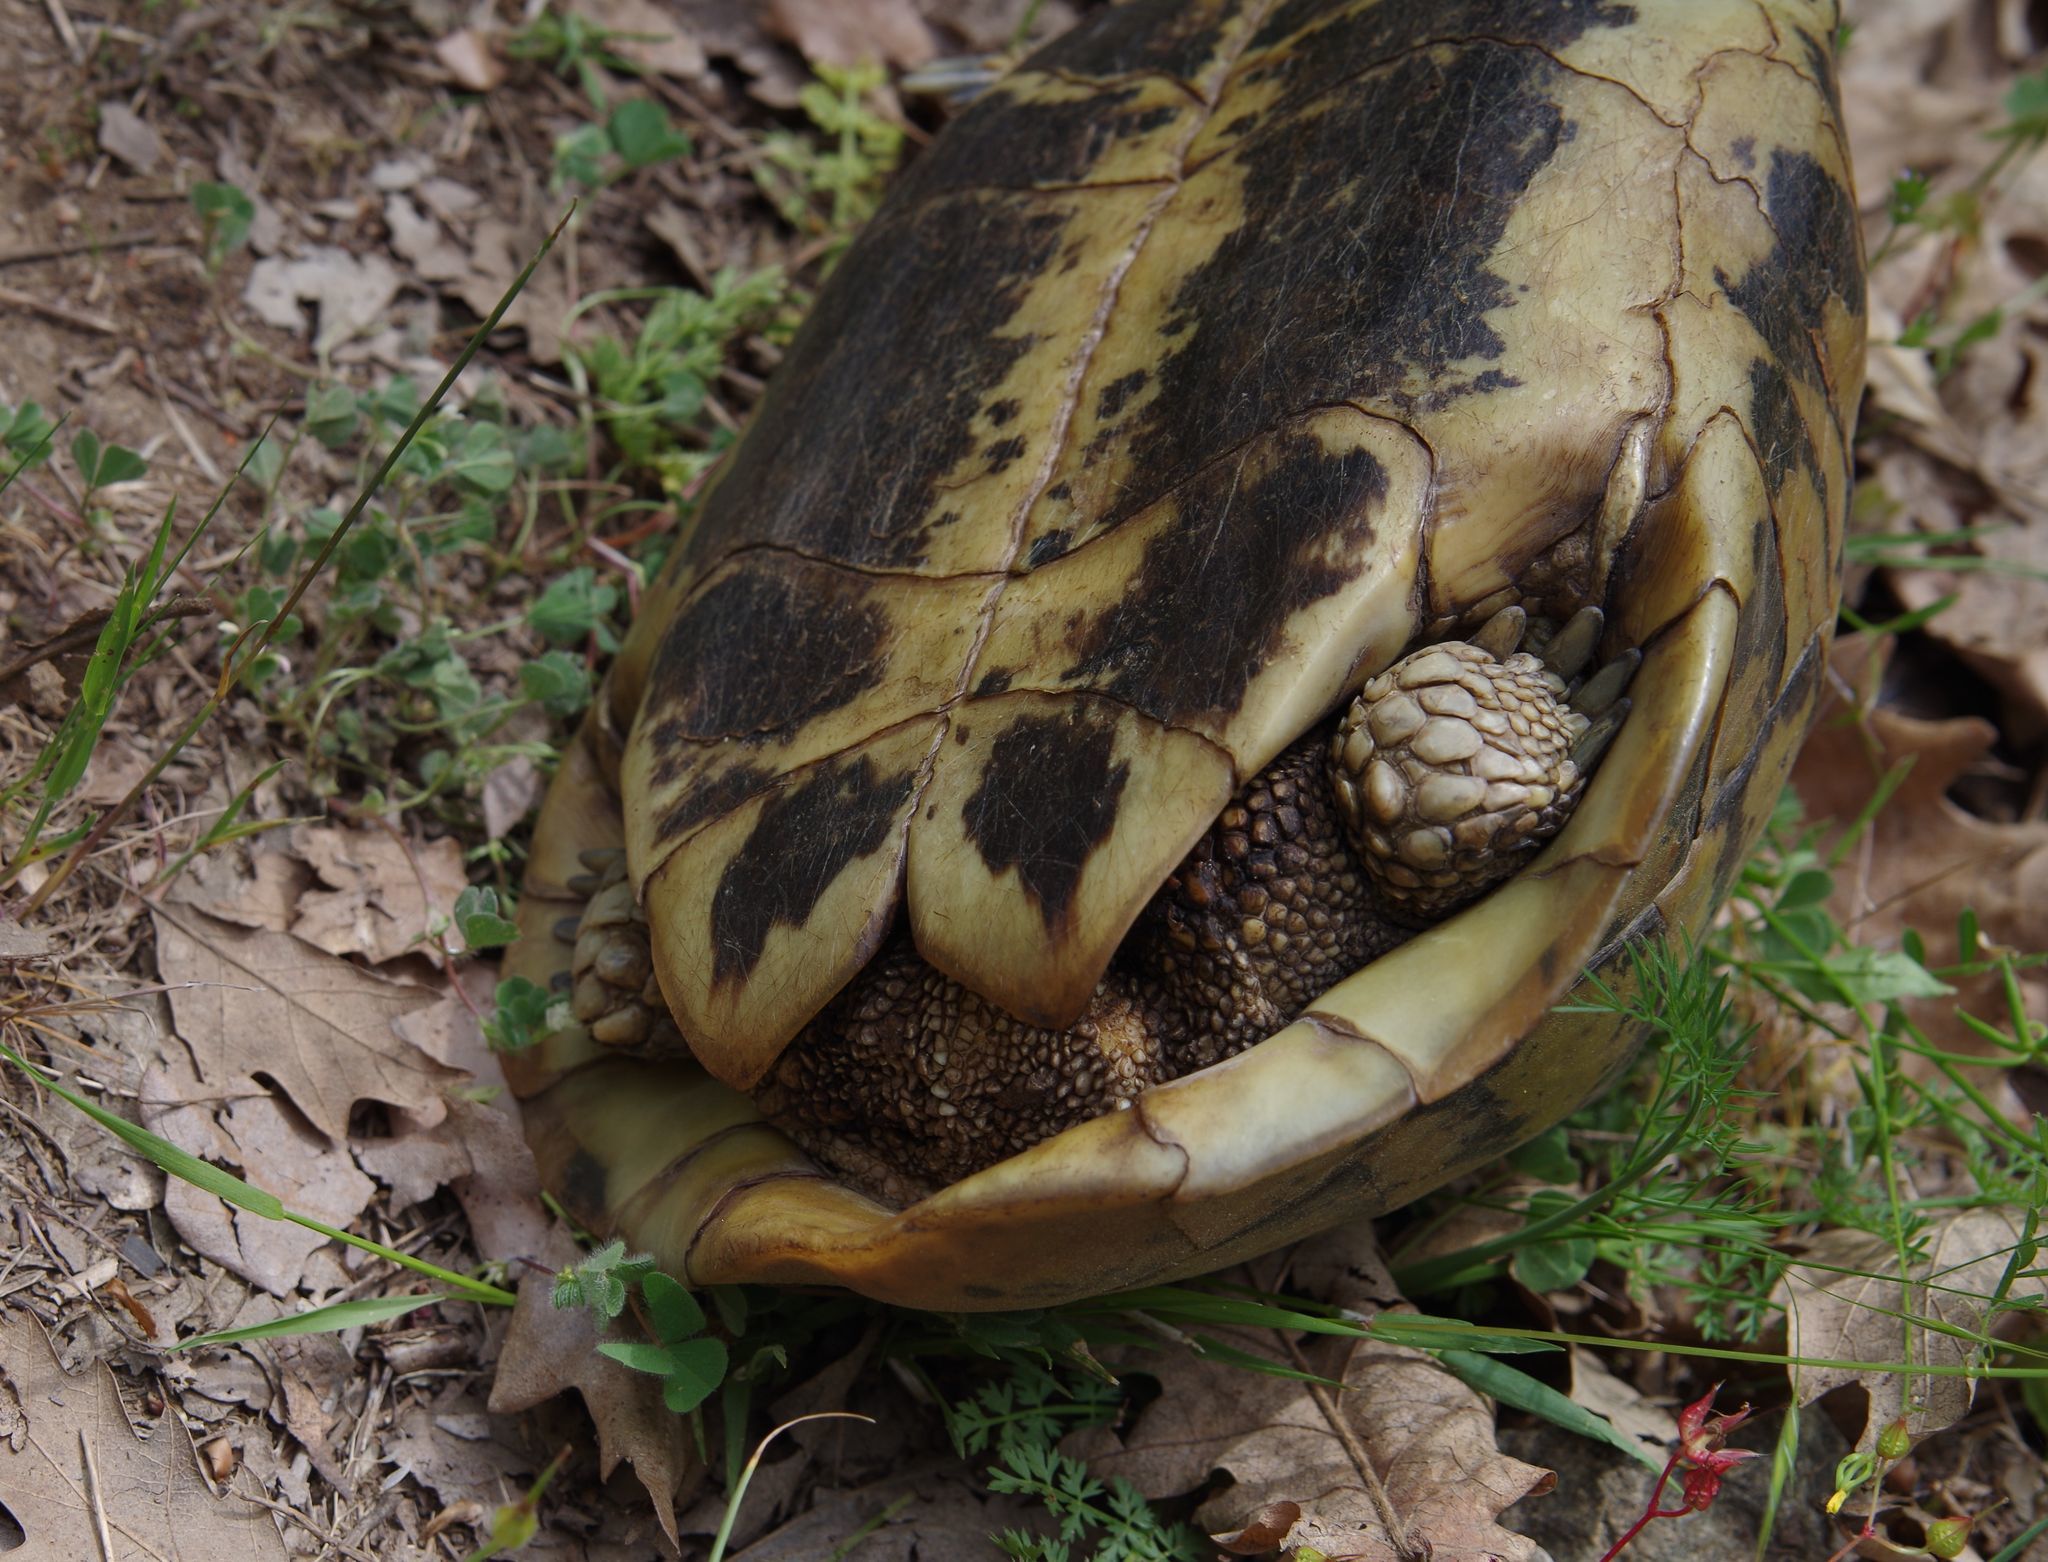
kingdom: Animalia
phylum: Chordata
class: Testudines
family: Testudinidae
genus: Testudo
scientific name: Testudo hermanni
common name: Hermann's tortoise
